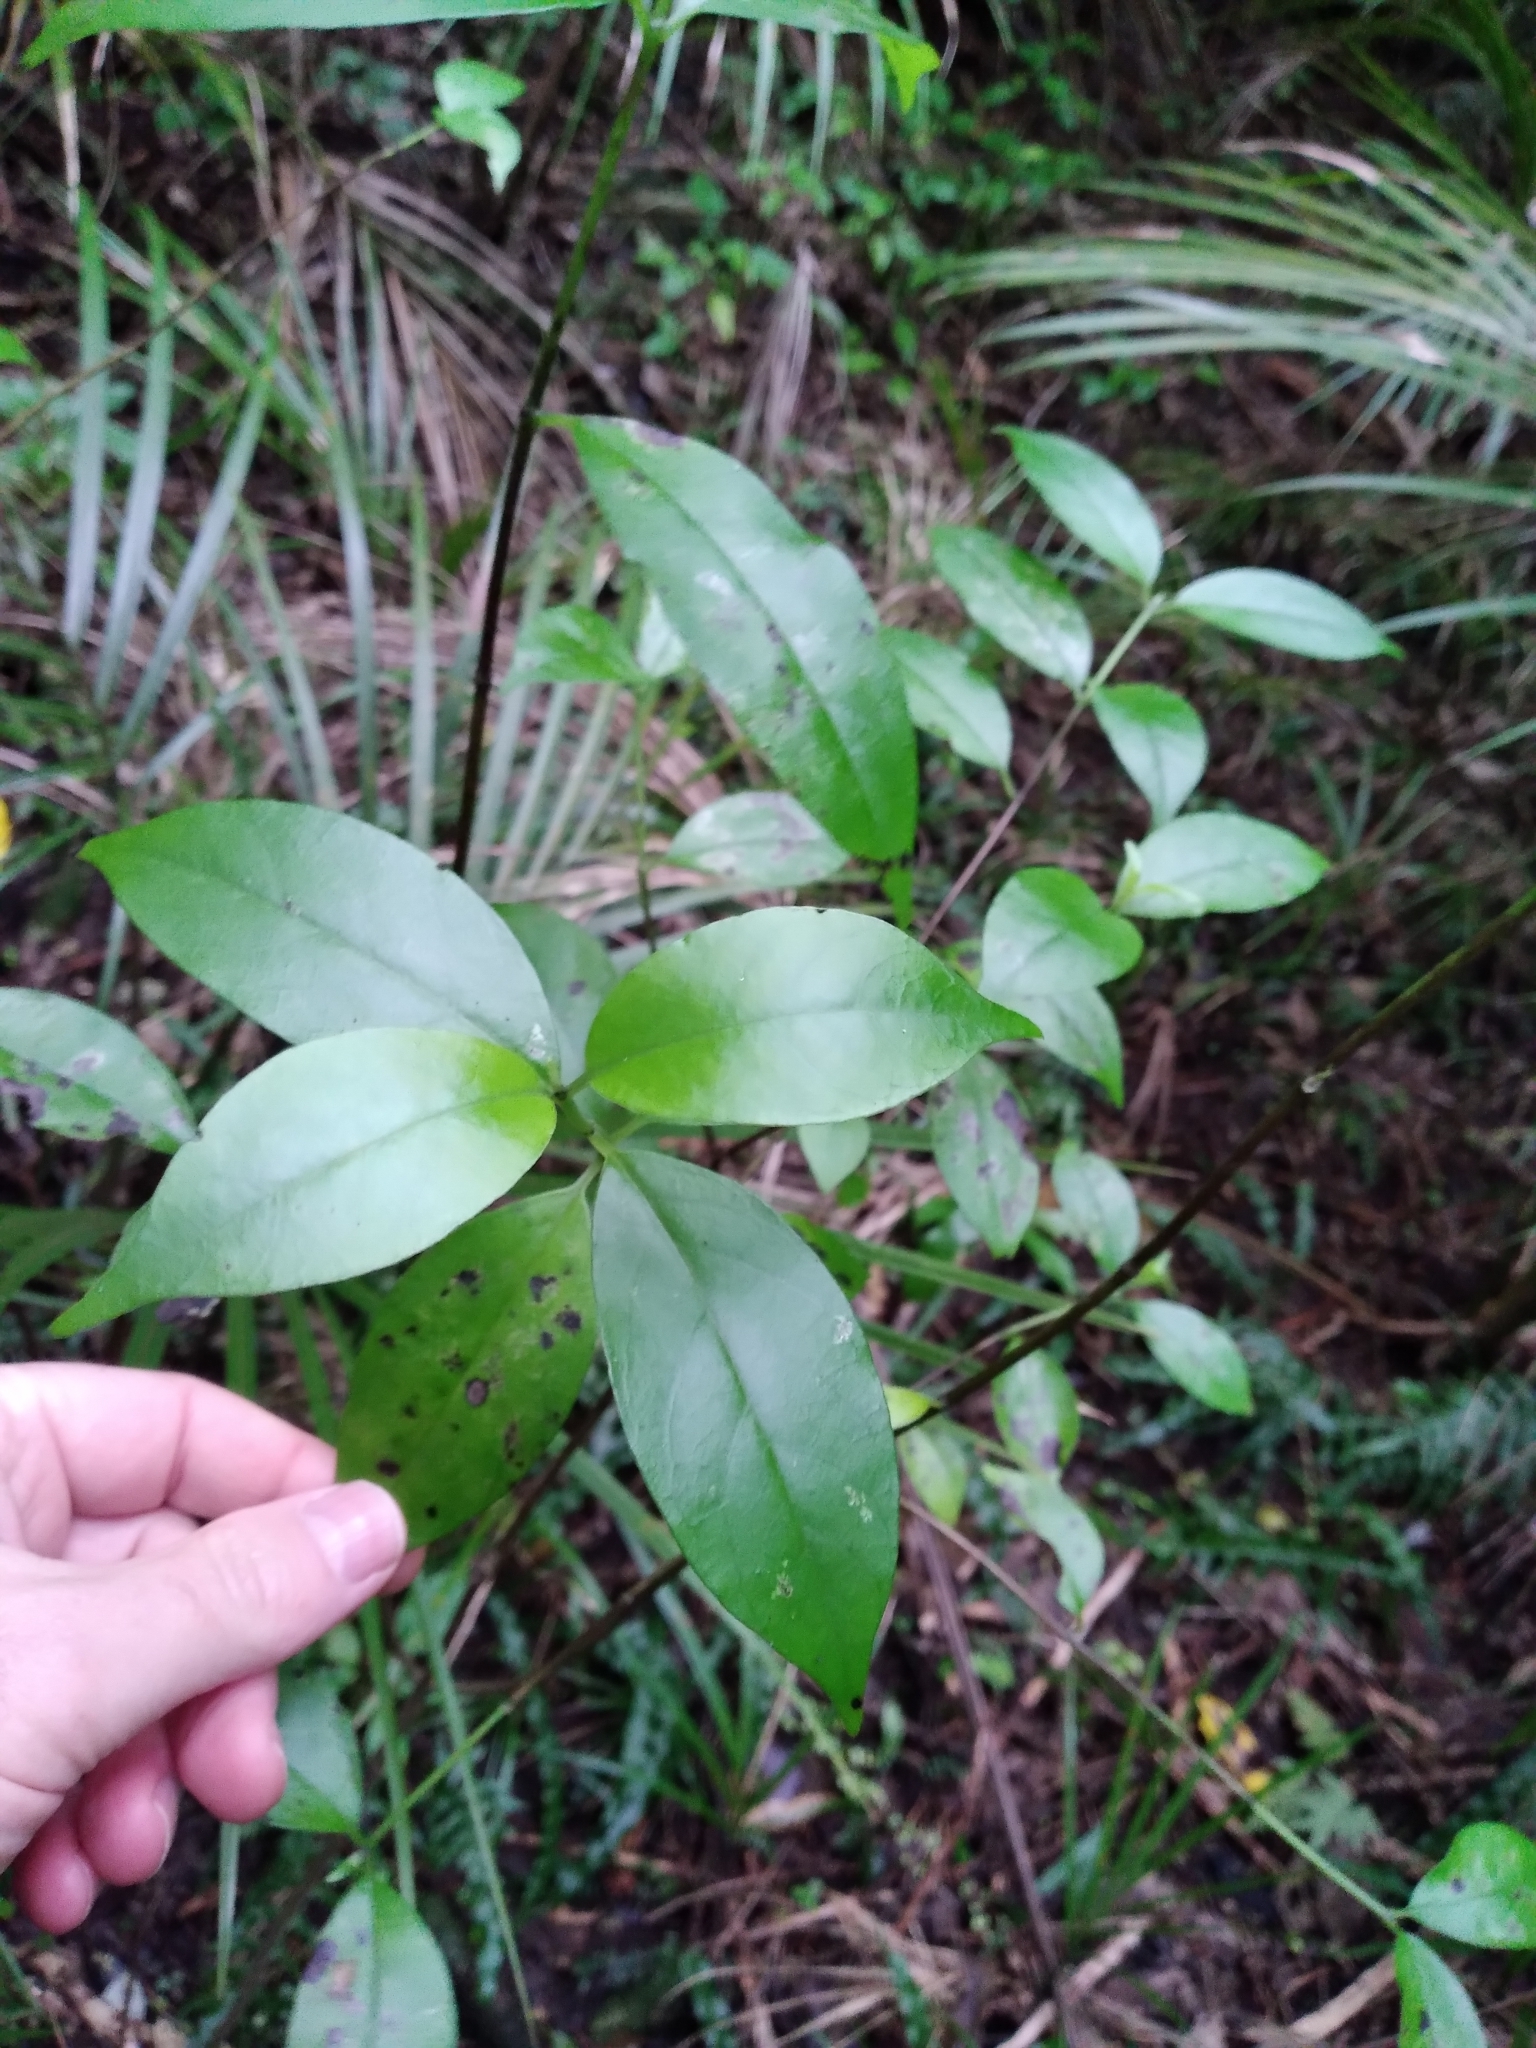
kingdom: Plantae
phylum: Tracheophyta
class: Magnoliopsida
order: Gentianales
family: Loganiaceae
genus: Geniostoma
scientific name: Geniostoma ligustrifolium
